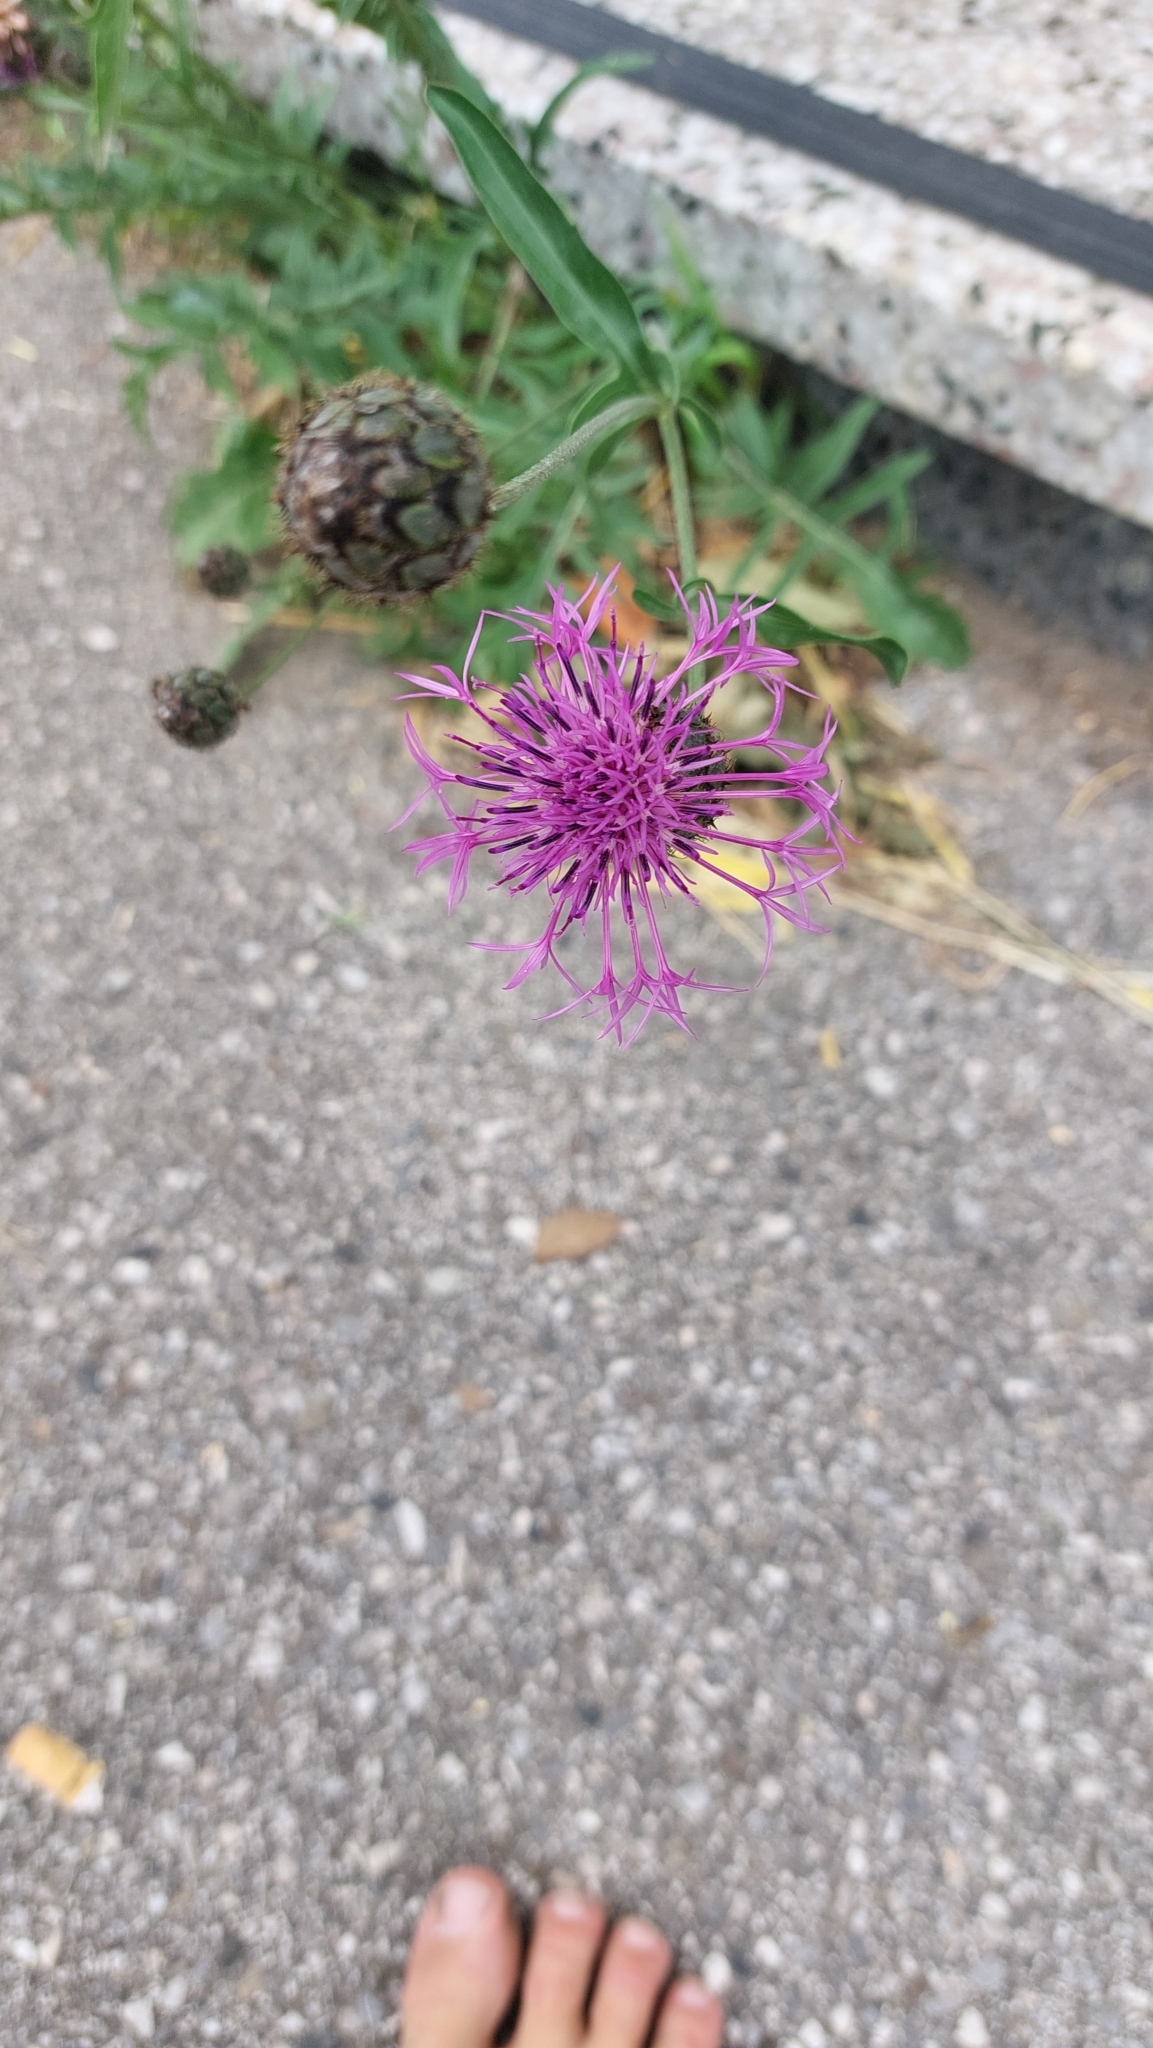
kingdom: Plantae
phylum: Tracheophyta
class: Magnoliopsida
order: Asterales
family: Asteraceae
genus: Centaurea
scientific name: Centaurea scabiosa
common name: Greater knapweed
